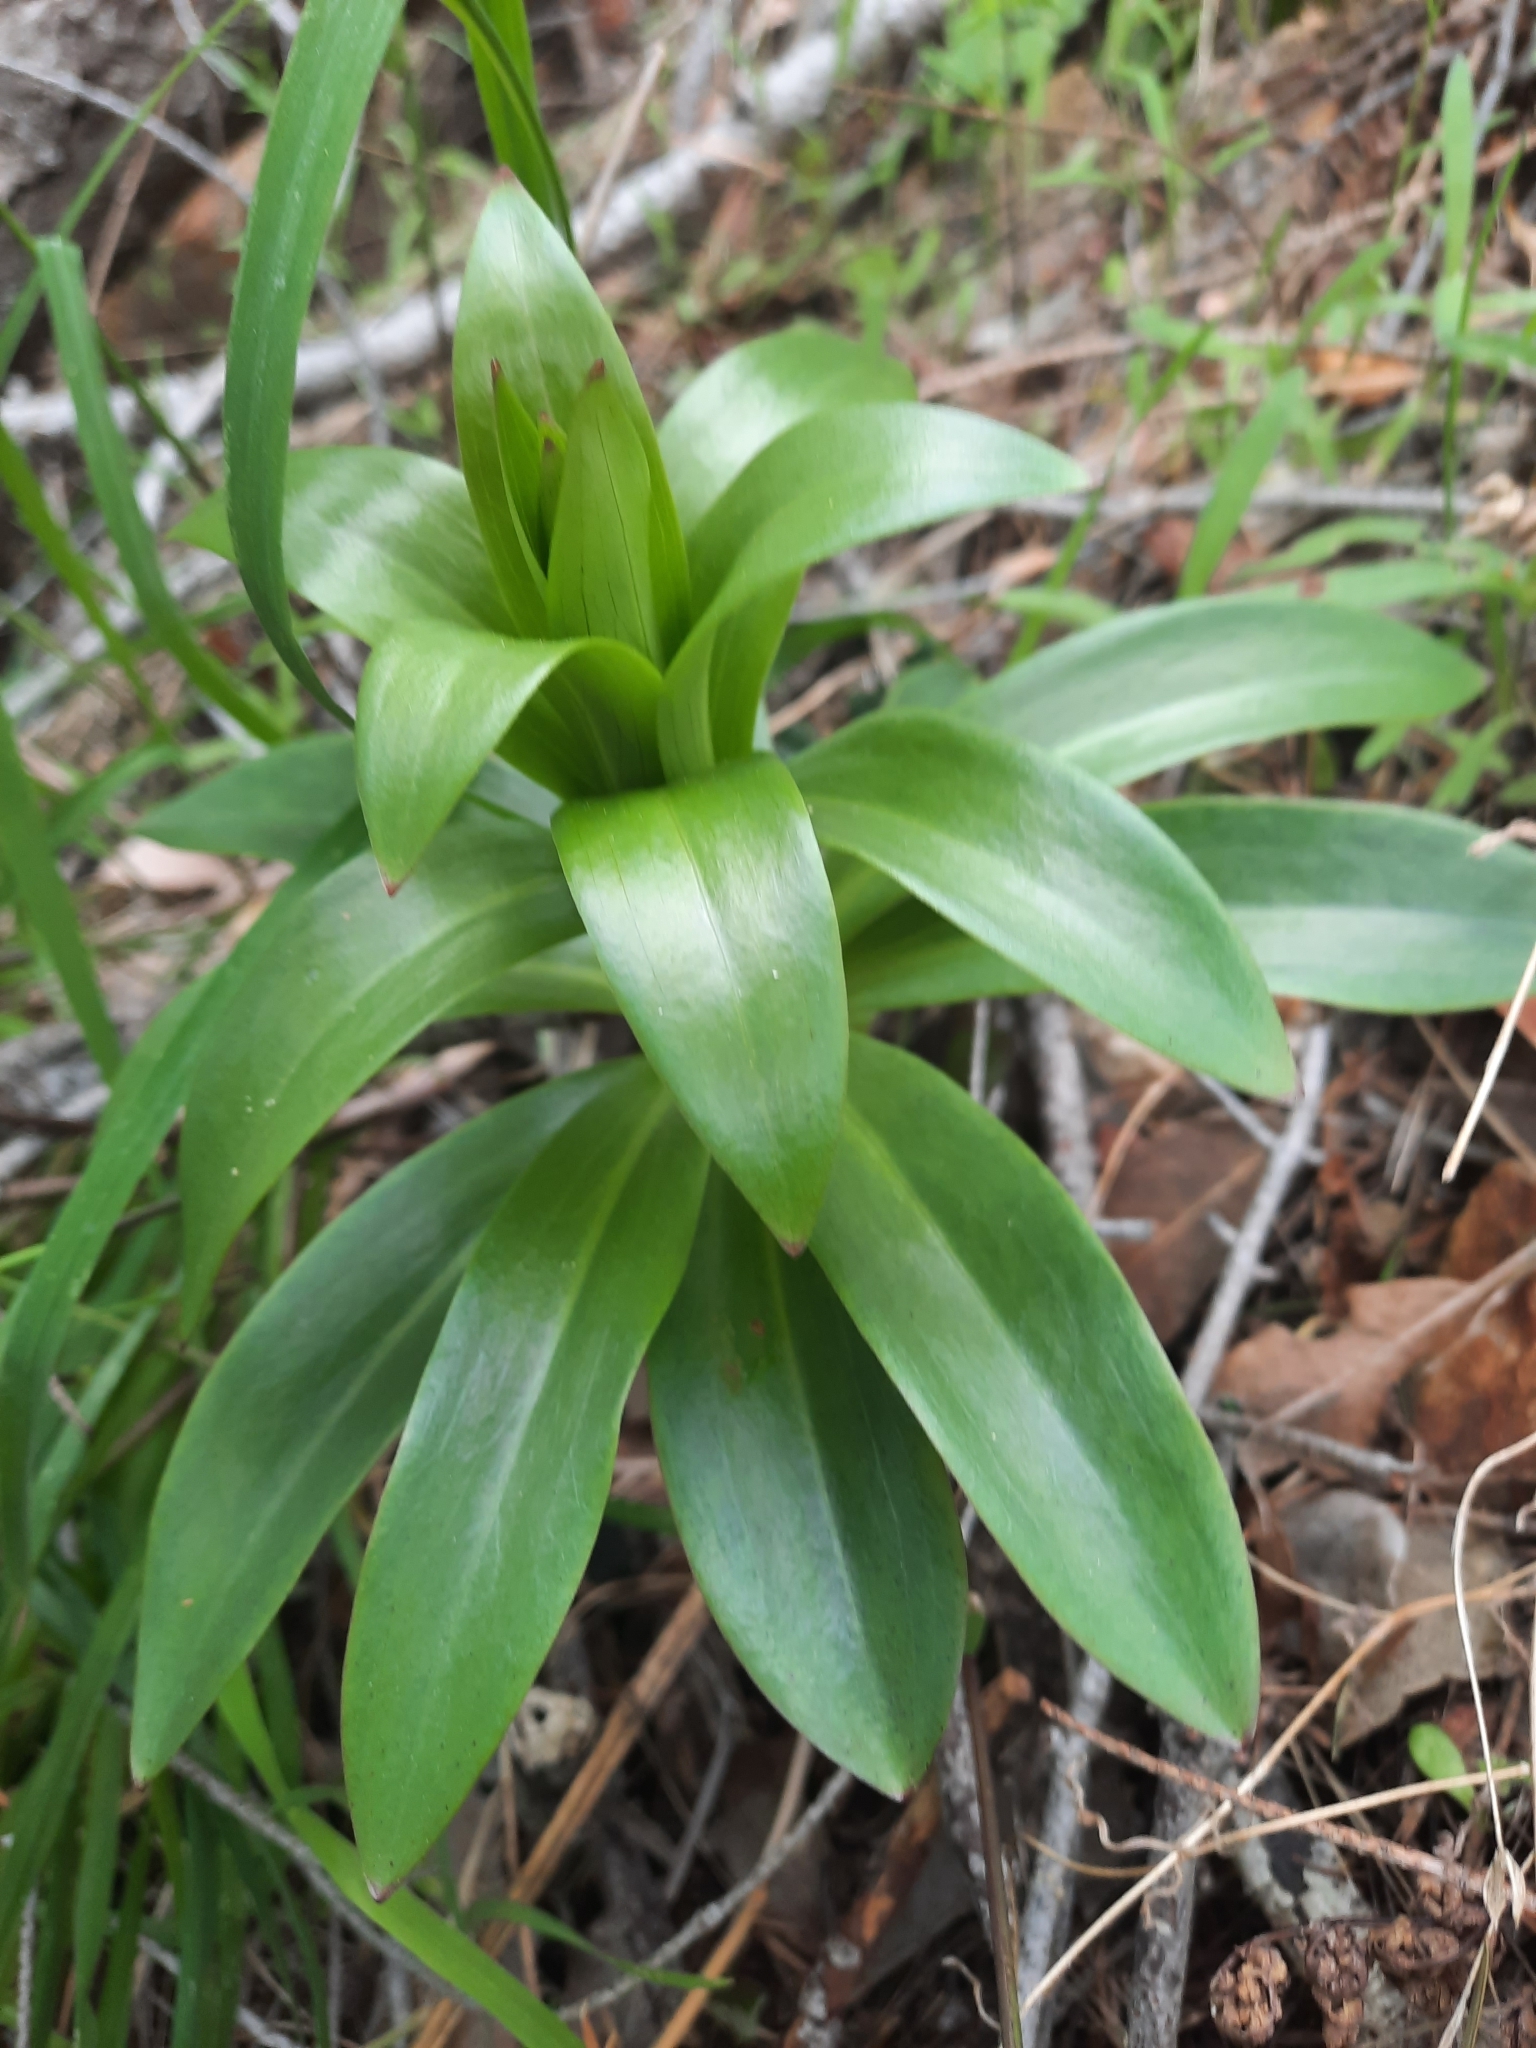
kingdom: Plantae
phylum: Tracheophyta
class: Liliopsida
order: Liliales
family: Liliaceae
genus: Lilium
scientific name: Lilium humboldtii
